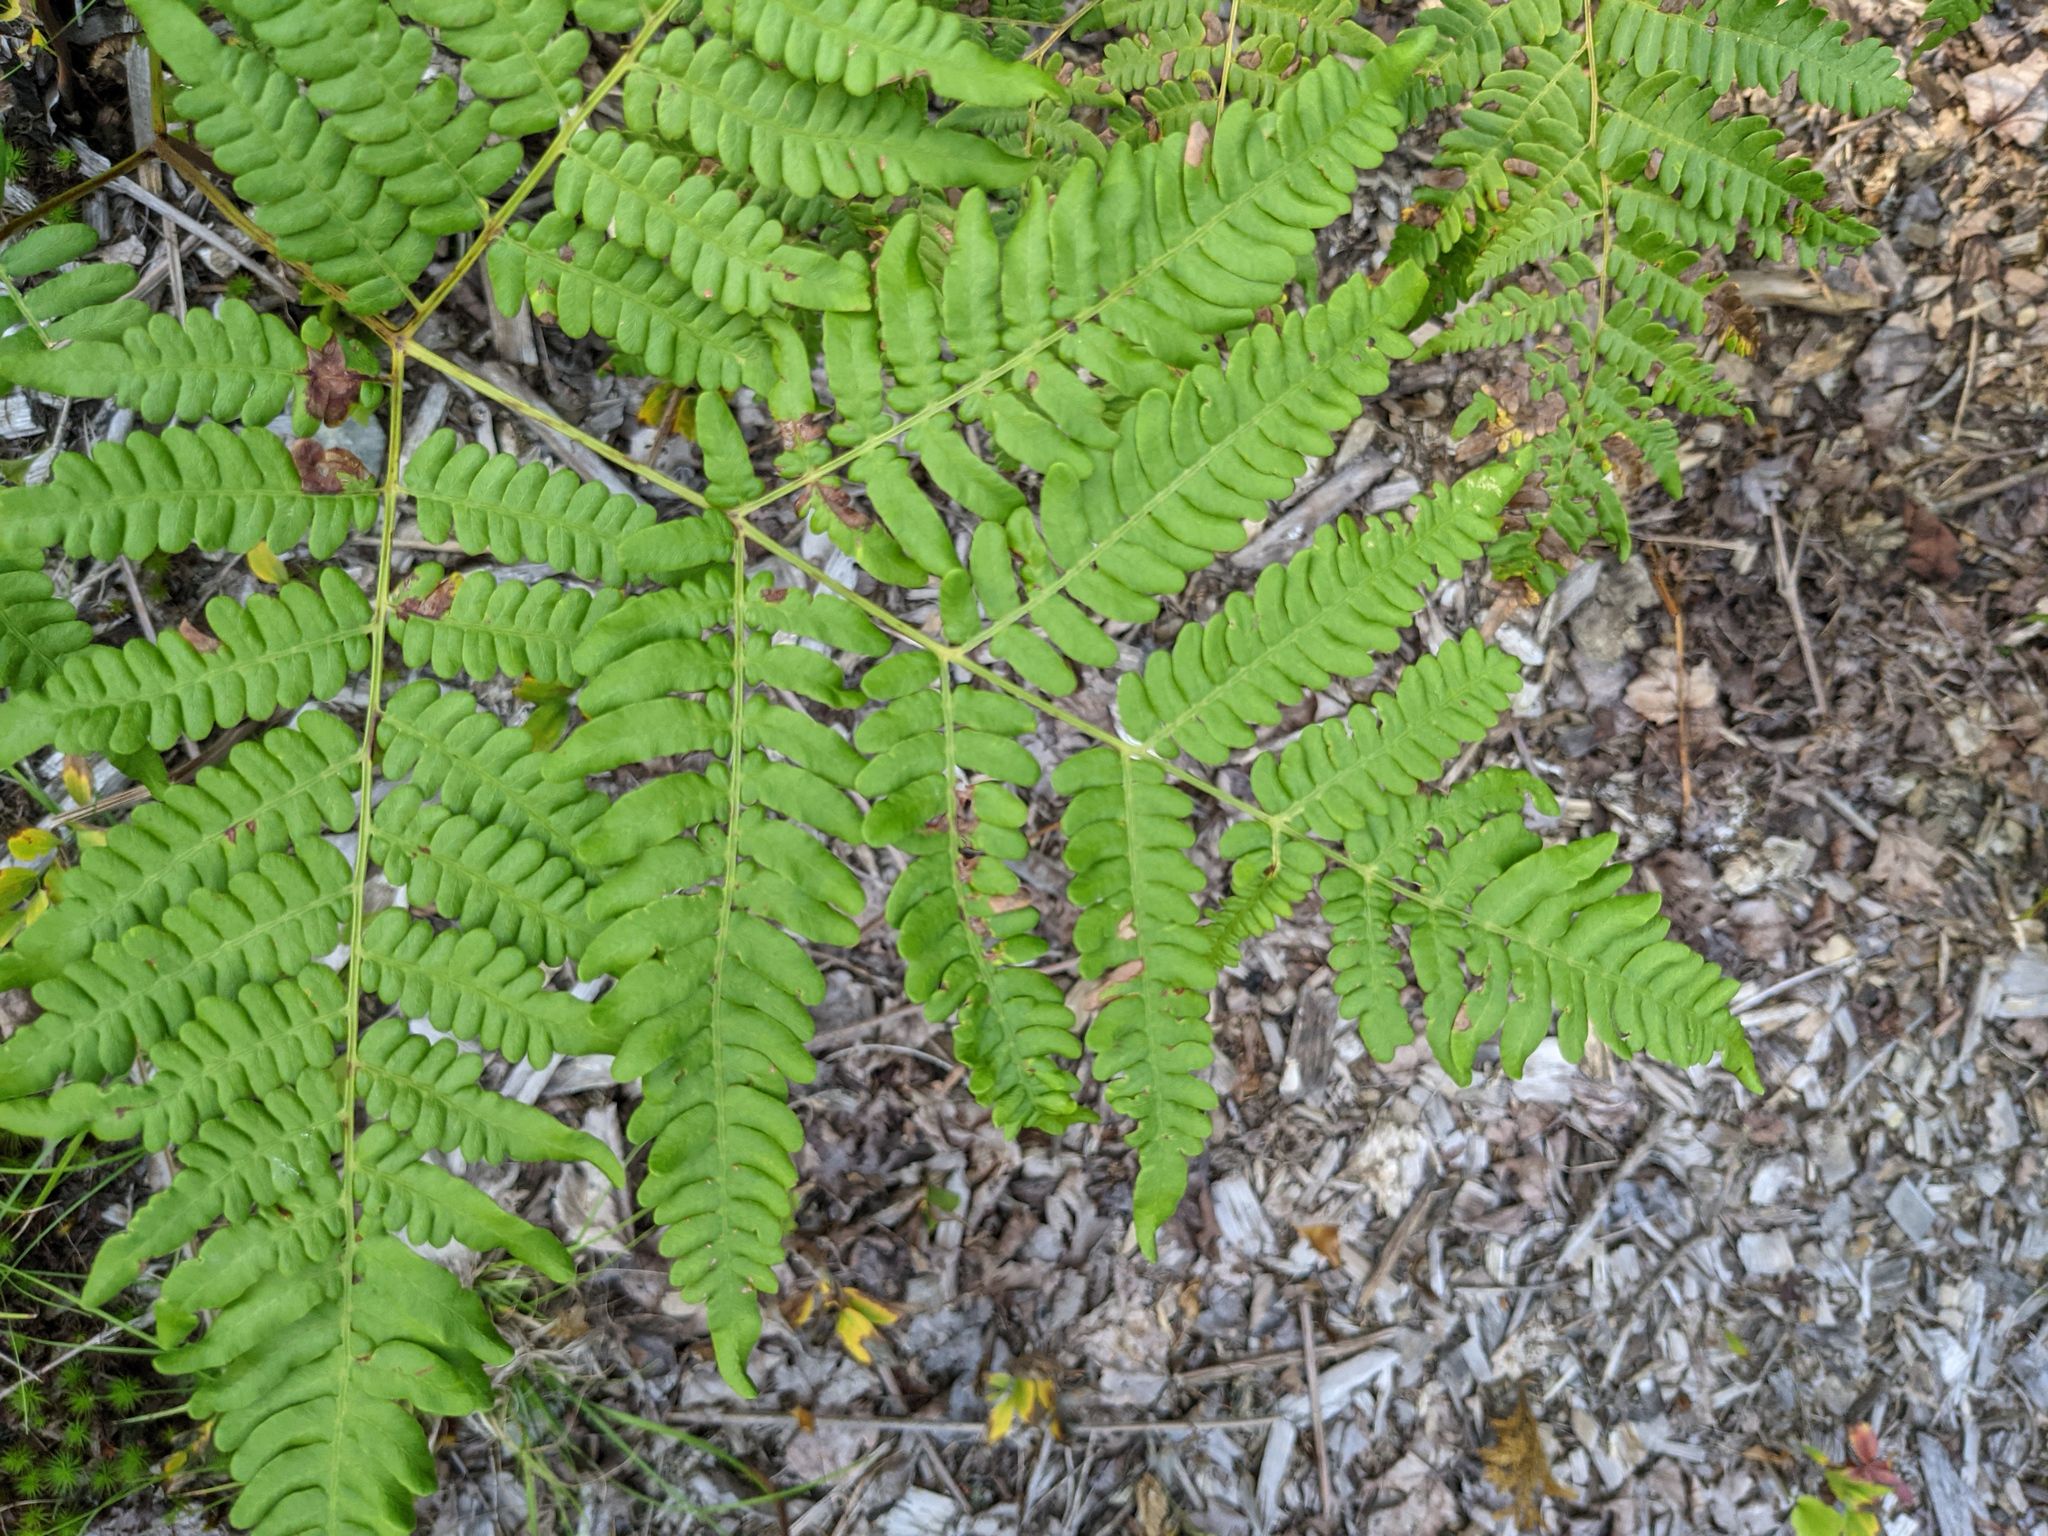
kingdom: Plantae
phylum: Tracheophyta
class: Polypodiopsida
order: Polypodiales
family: Dennstaedtiaceae
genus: Pteridium
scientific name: Pteridium aquilinum
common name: Bracken
